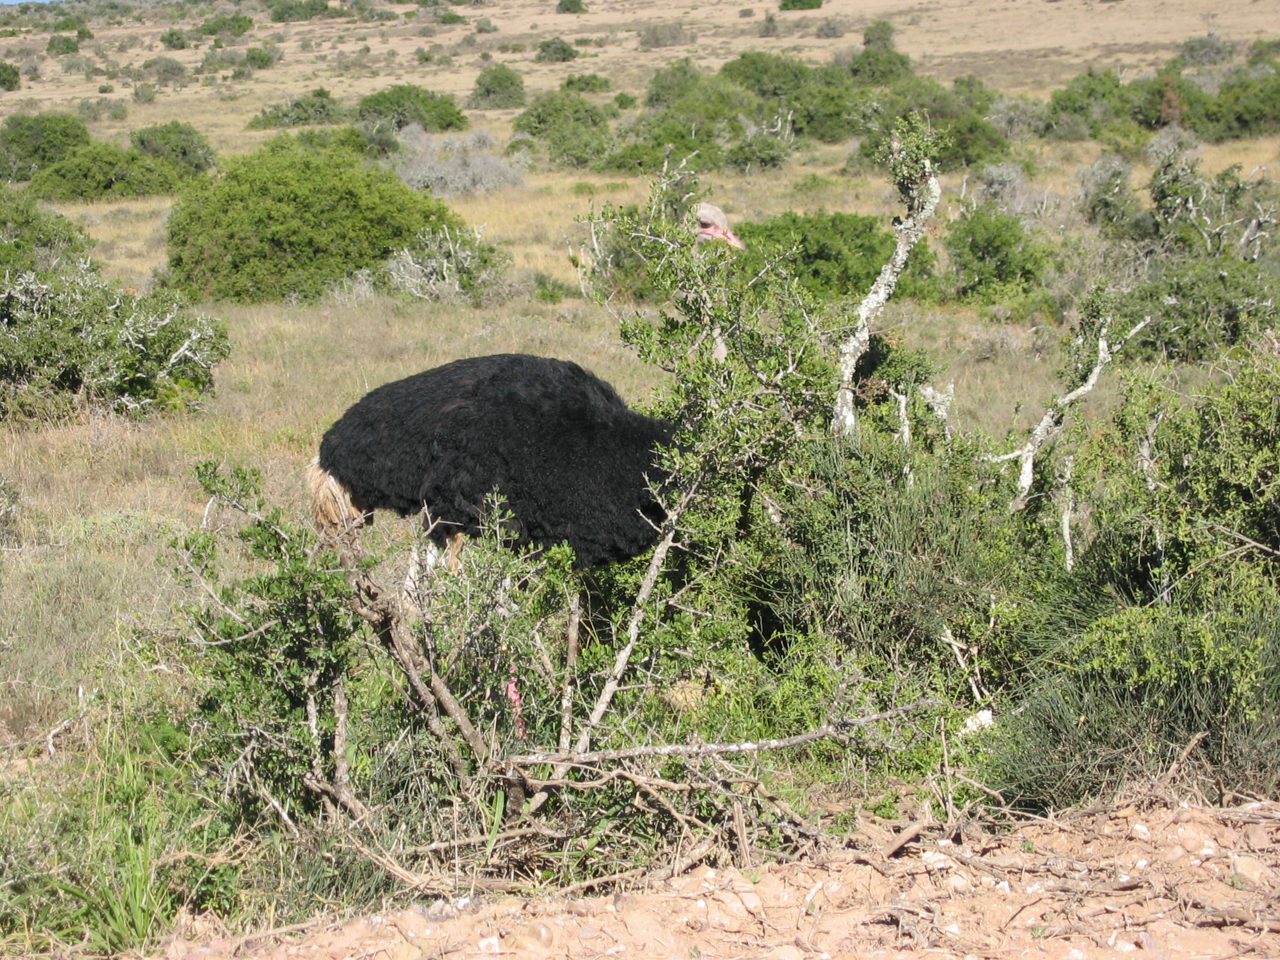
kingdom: Animalia
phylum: Chordata
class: Aves
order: Struthioniformes
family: Struthionidae
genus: Struthio
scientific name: Struthio camelus
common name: Common ostrich
